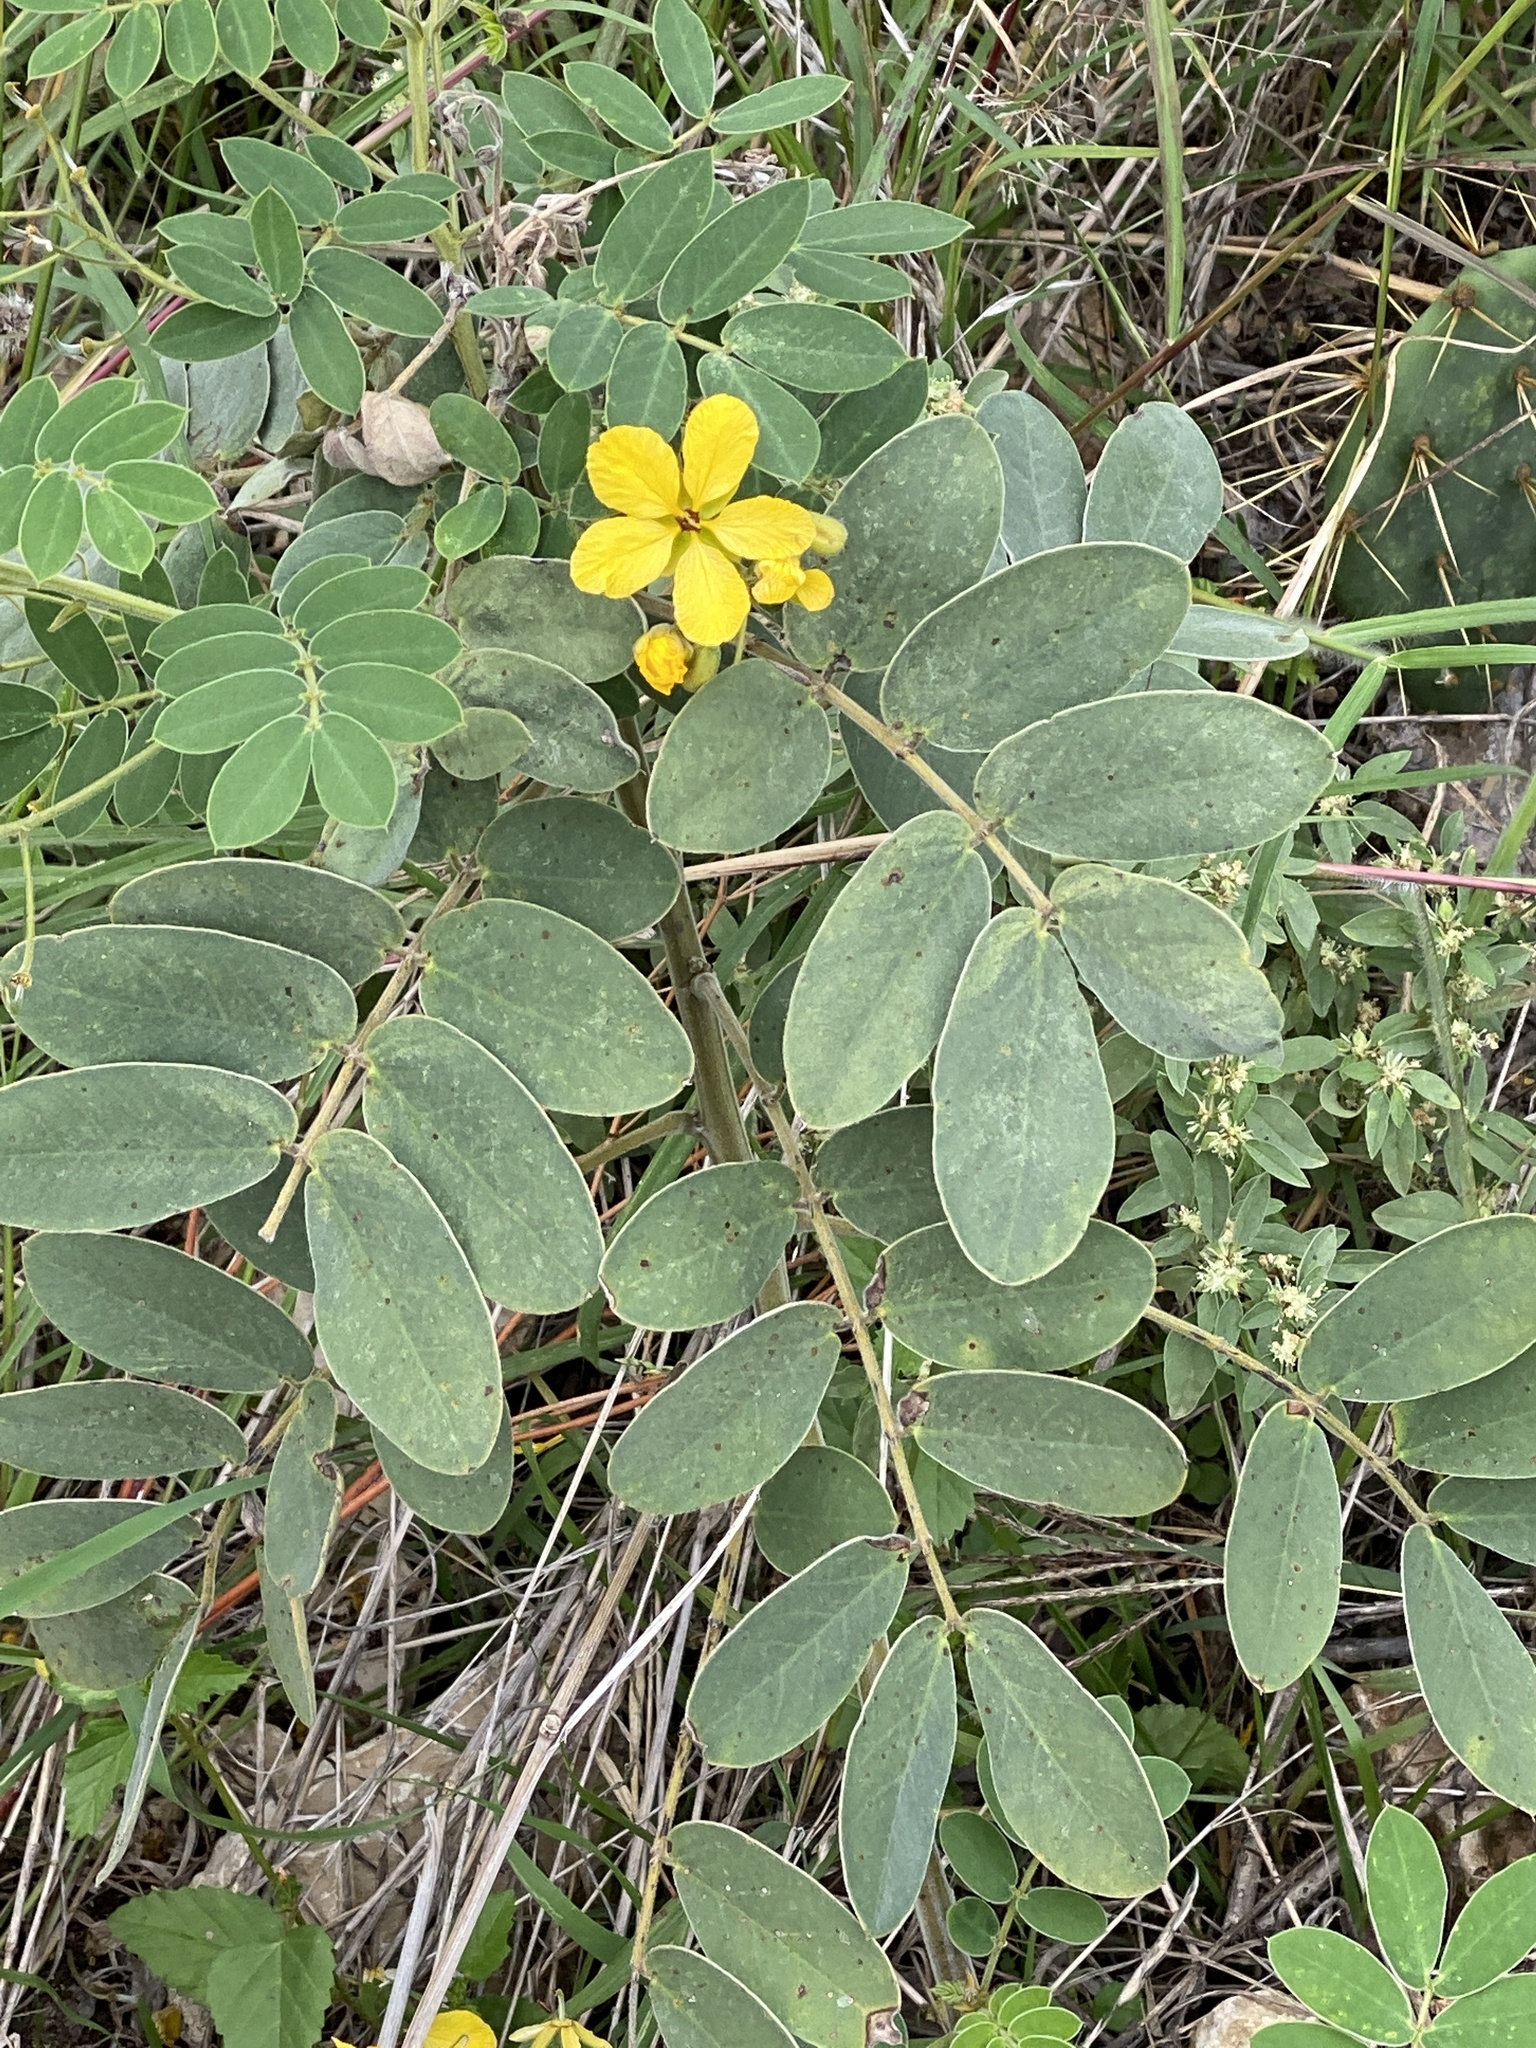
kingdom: Plantae
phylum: Tracheophyta
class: Magnoliopsida
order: Fabales
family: Fabaceae
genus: Senna
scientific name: Senna lindheimeriana
